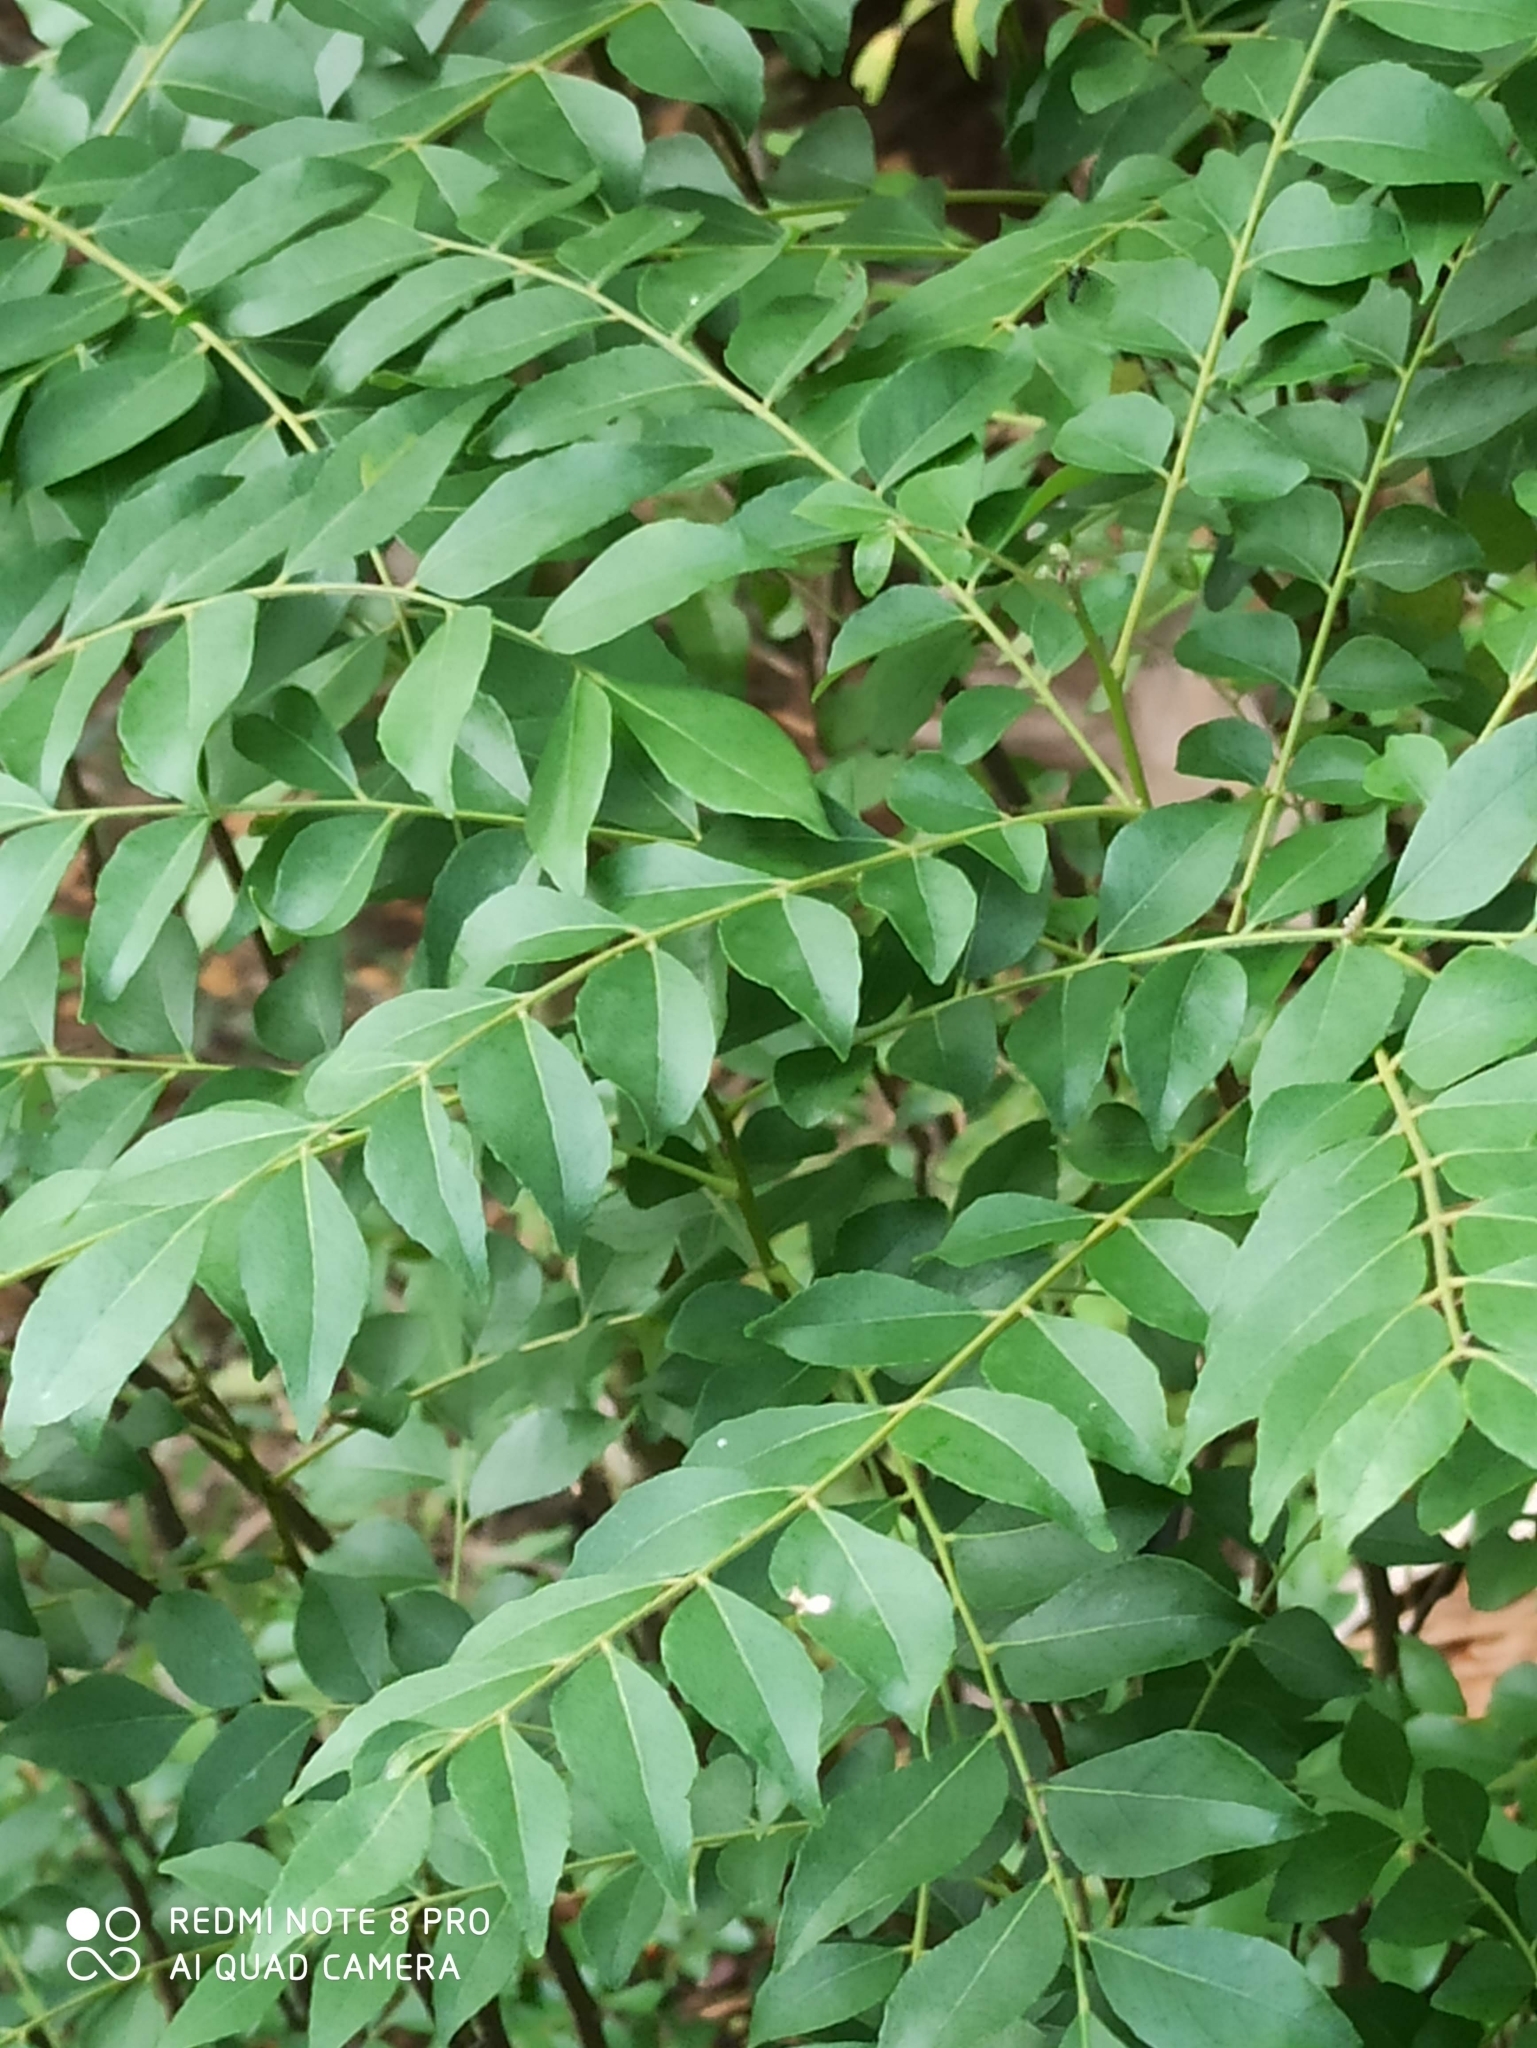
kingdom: Plantae
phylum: Tracheophyta
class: Magnoliopsida
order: Sapindales
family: Rutaceae
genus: Murraya
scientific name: Murraya koenigii
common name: Curry-plant
